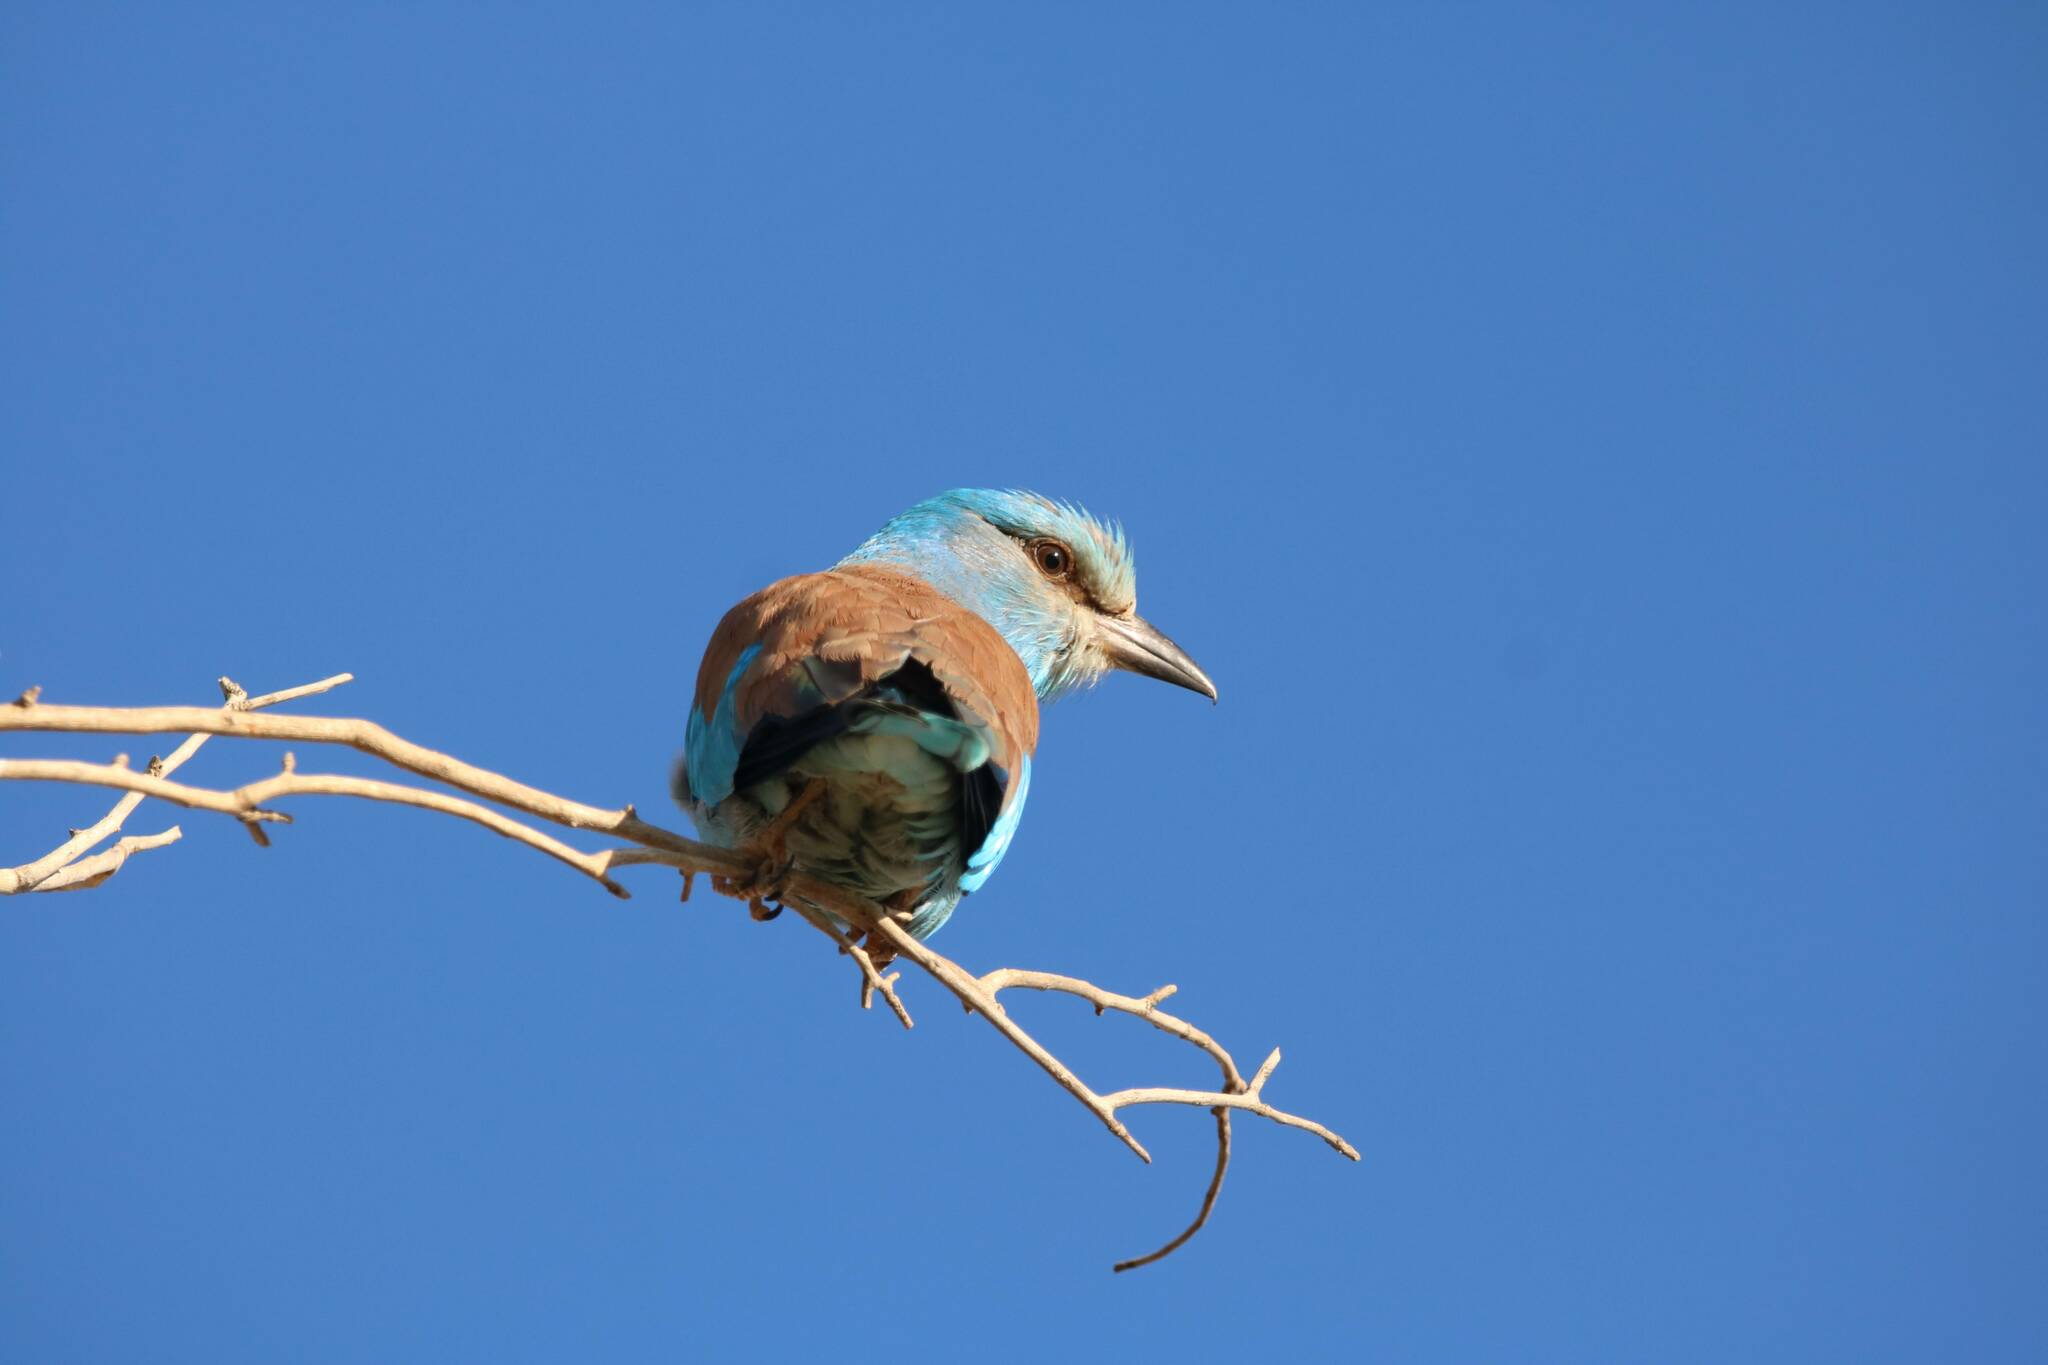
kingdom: Animalia
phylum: Chordata
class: Aves
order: Coraciiformes
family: Coraciidae
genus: Coracias
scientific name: Coracias garrulus
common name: European roller
